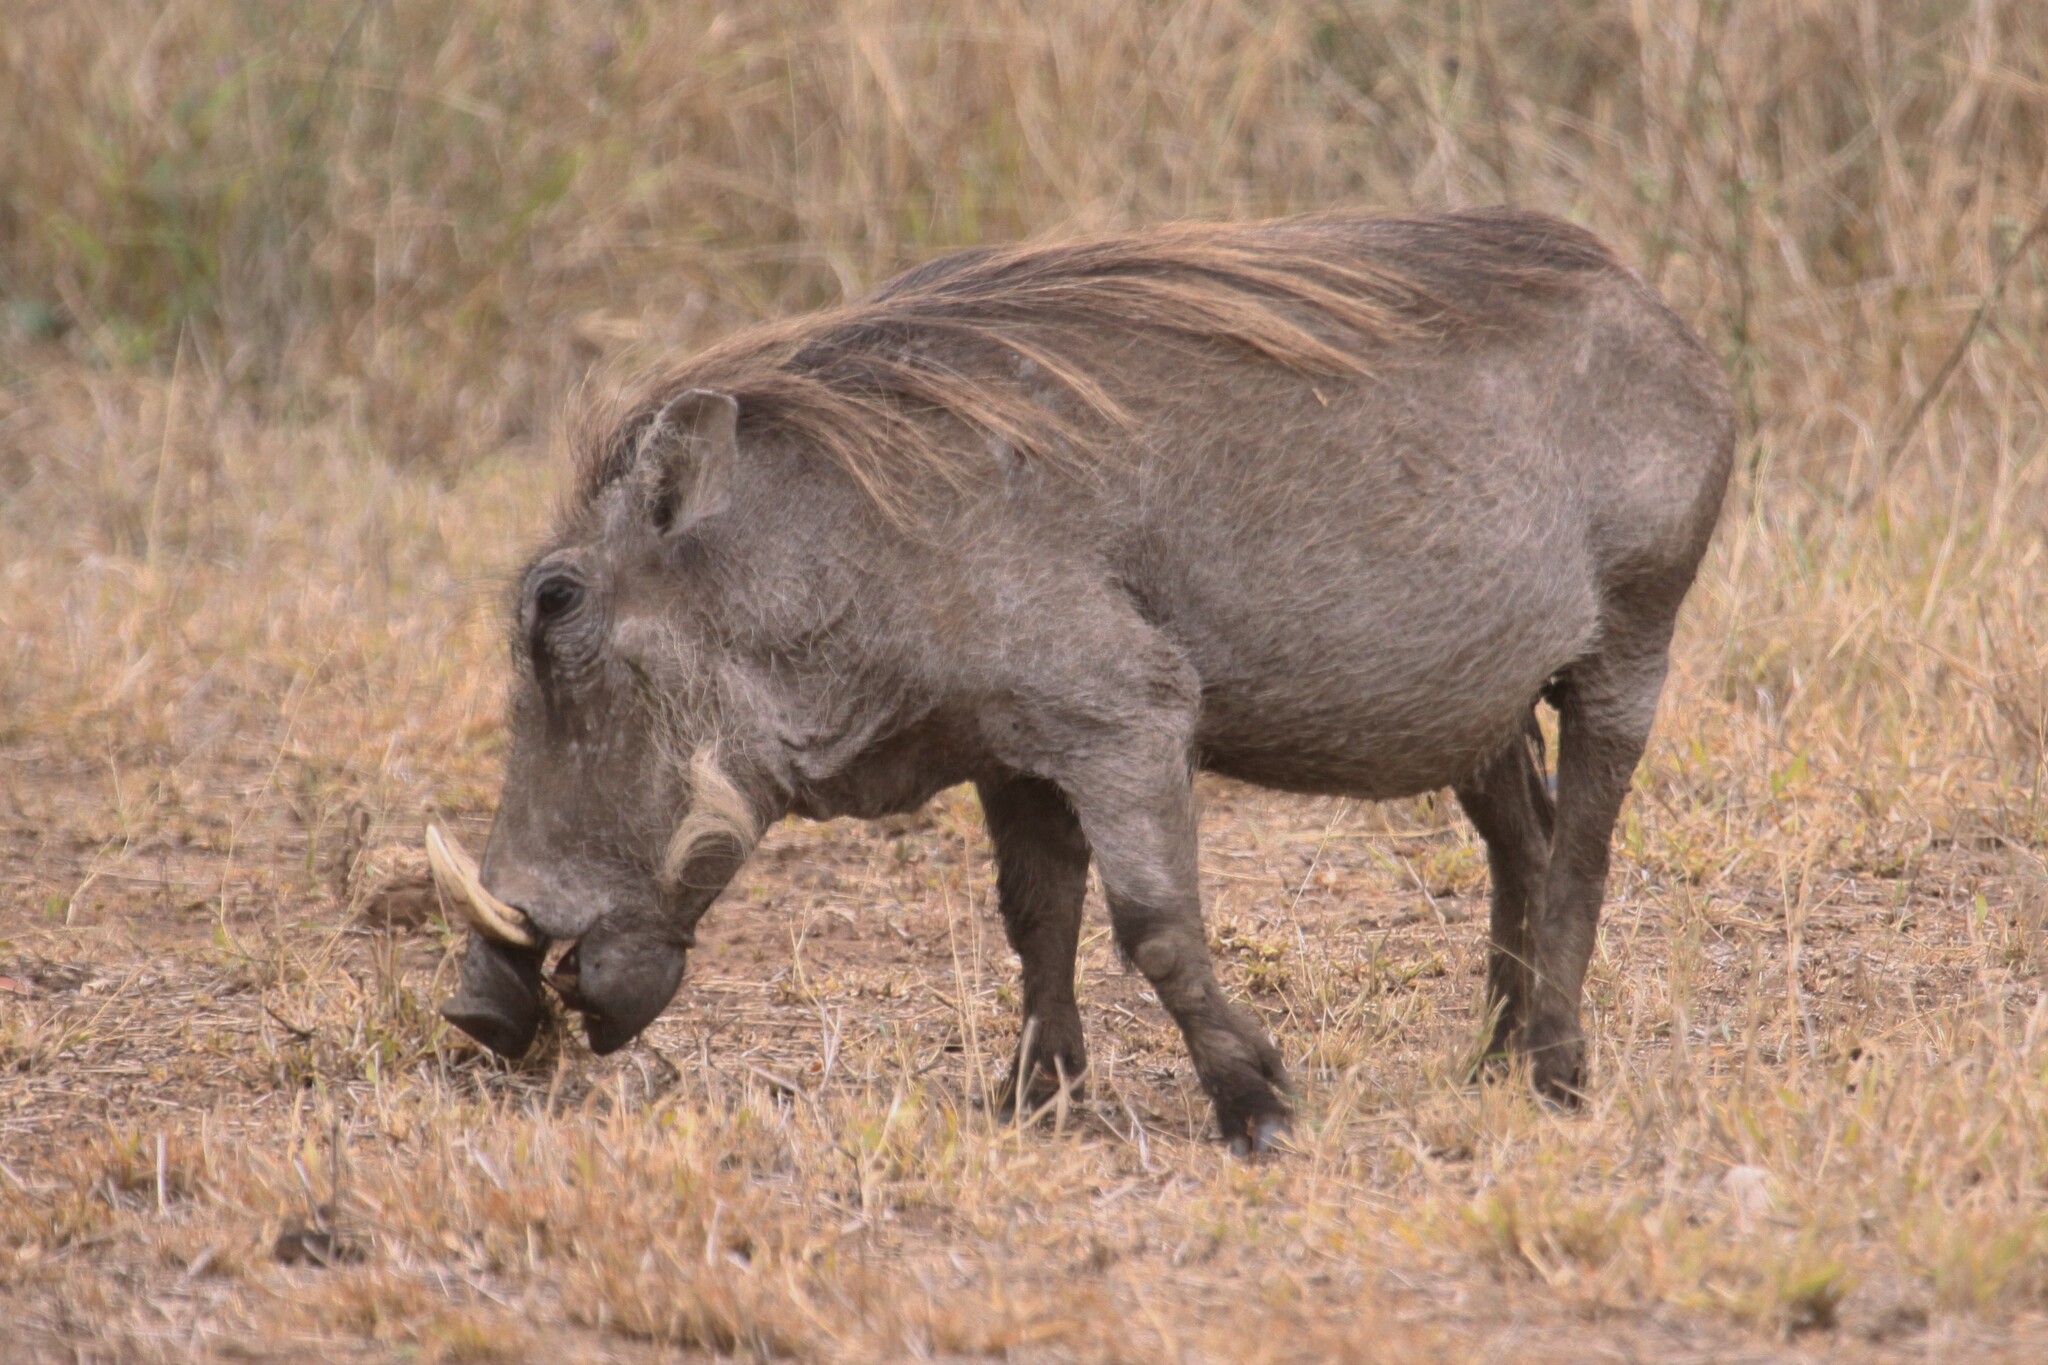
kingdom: Animalia
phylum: Chordata
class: Mammalia
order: Artiodactyla
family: Suidae
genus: Phacochoerus
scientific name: Phacochoerus africanus
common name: Common warthog
